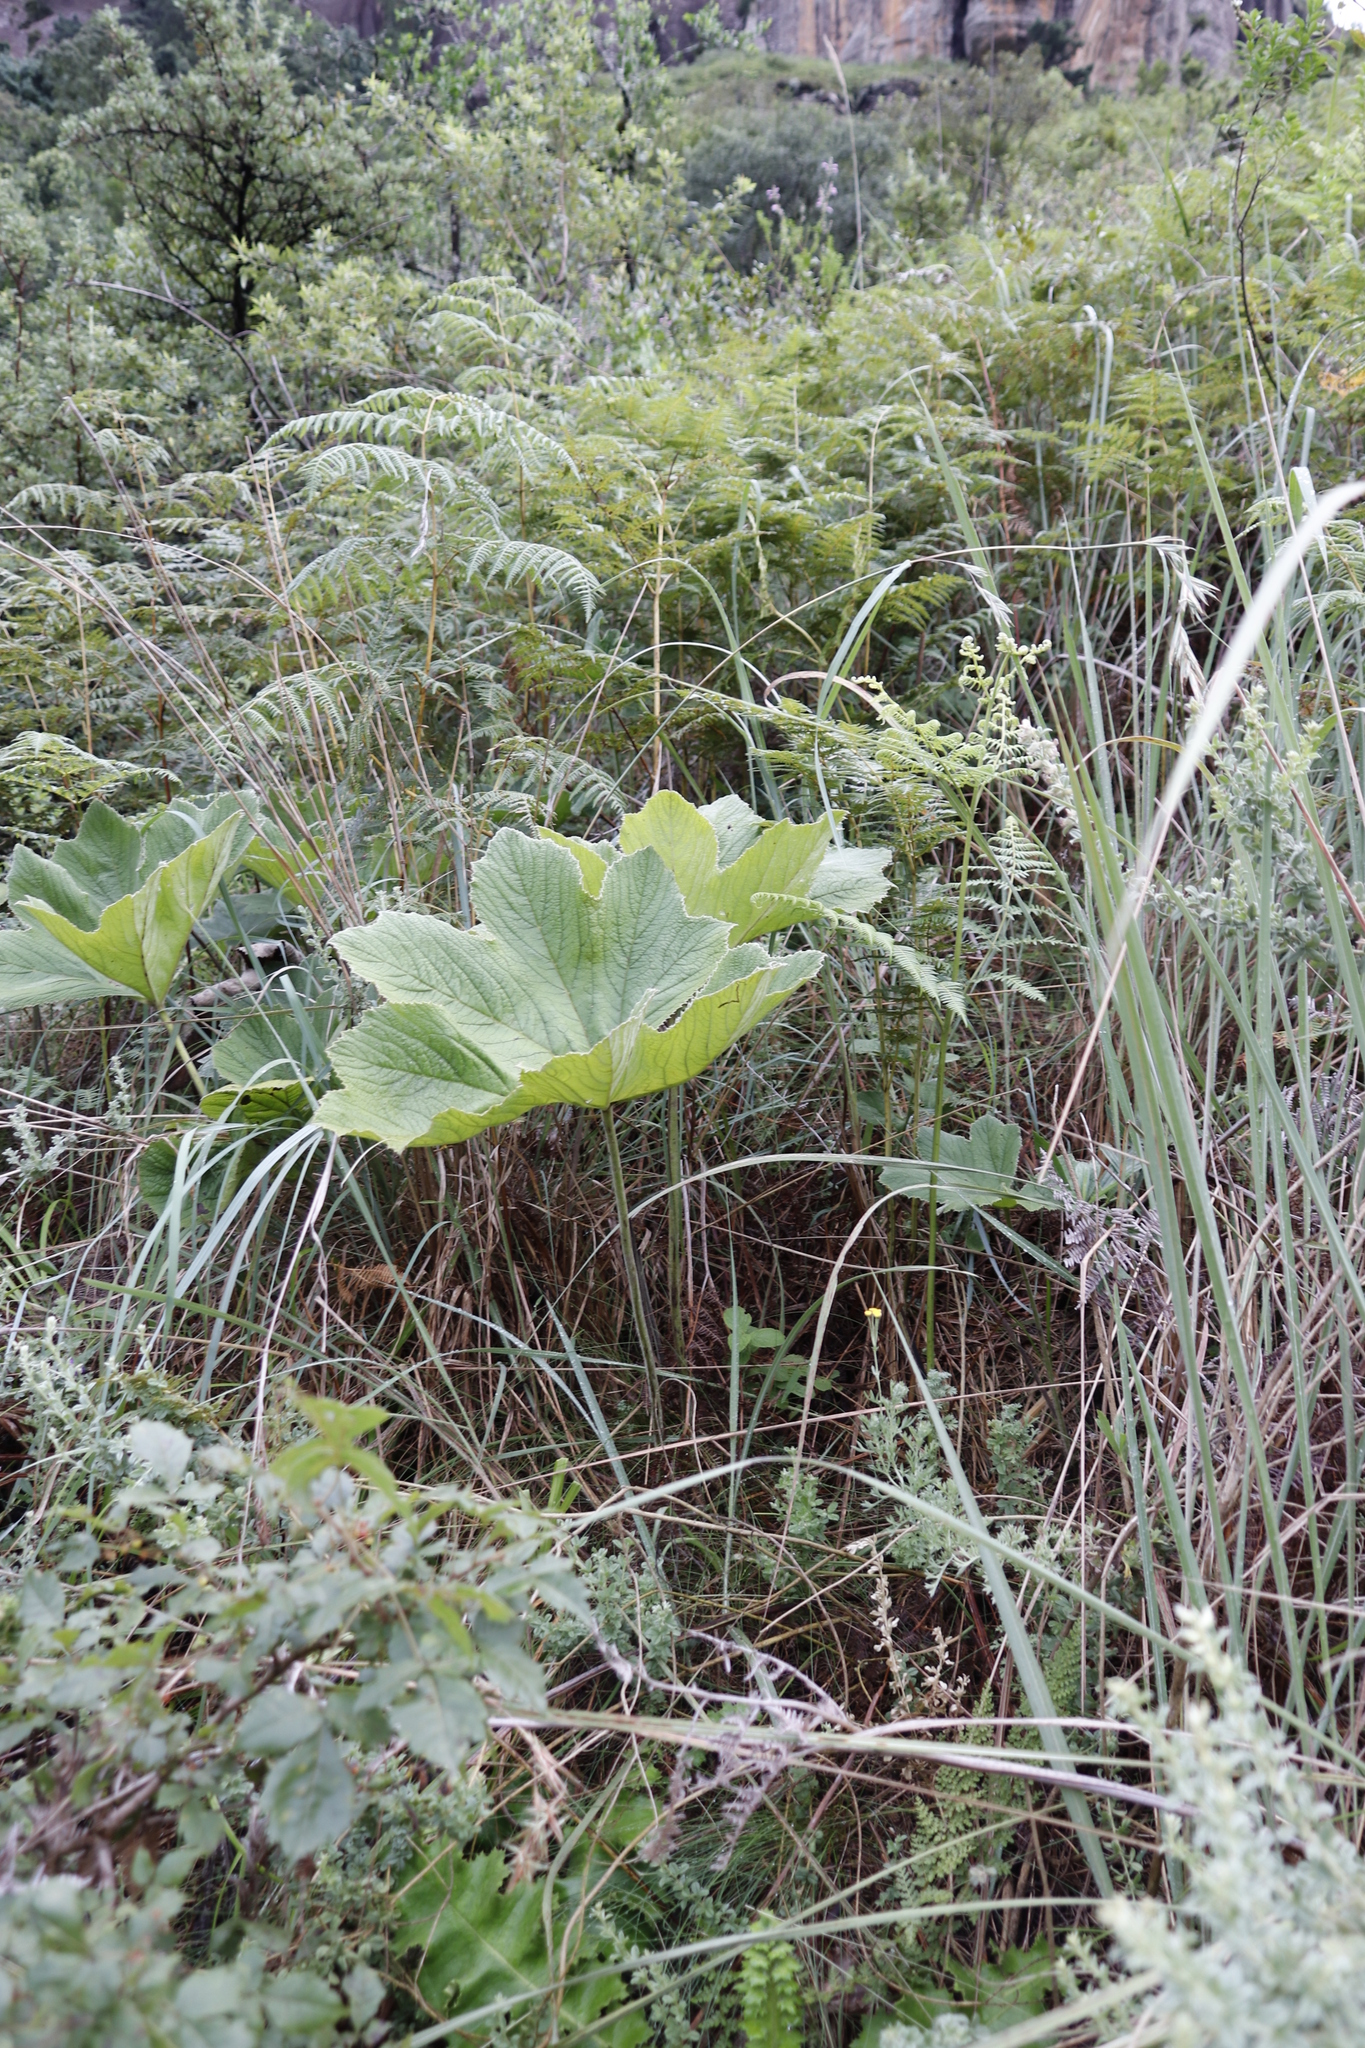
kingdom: Plantae
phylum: Tracheophyta
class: Magnoliopsida
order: Ranunculales
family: Ranunculaceae
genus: Knowltonia
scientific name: Knowltonia fanninii
